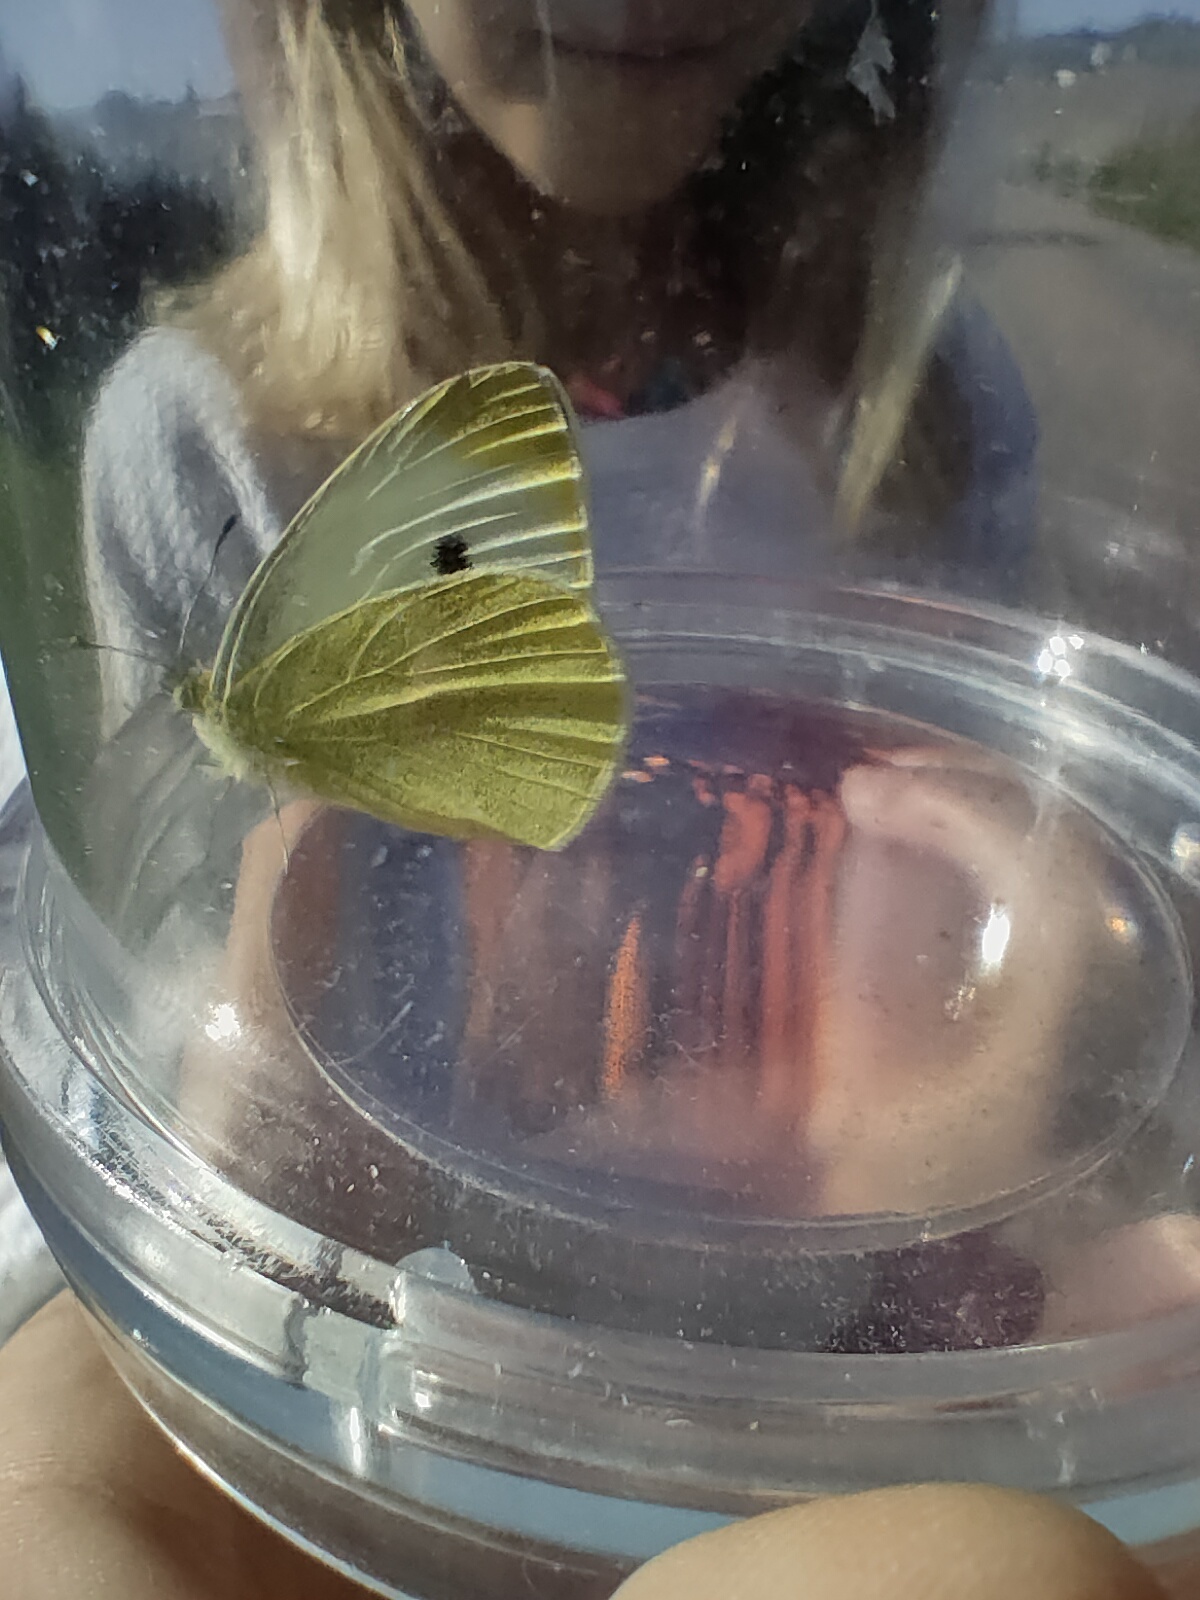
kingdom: Animalia
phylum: Arthropoda
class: Insecta
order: Lepidoptera
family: Pieridae
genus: Pieris
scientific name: Pieris rapae
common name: Small white
